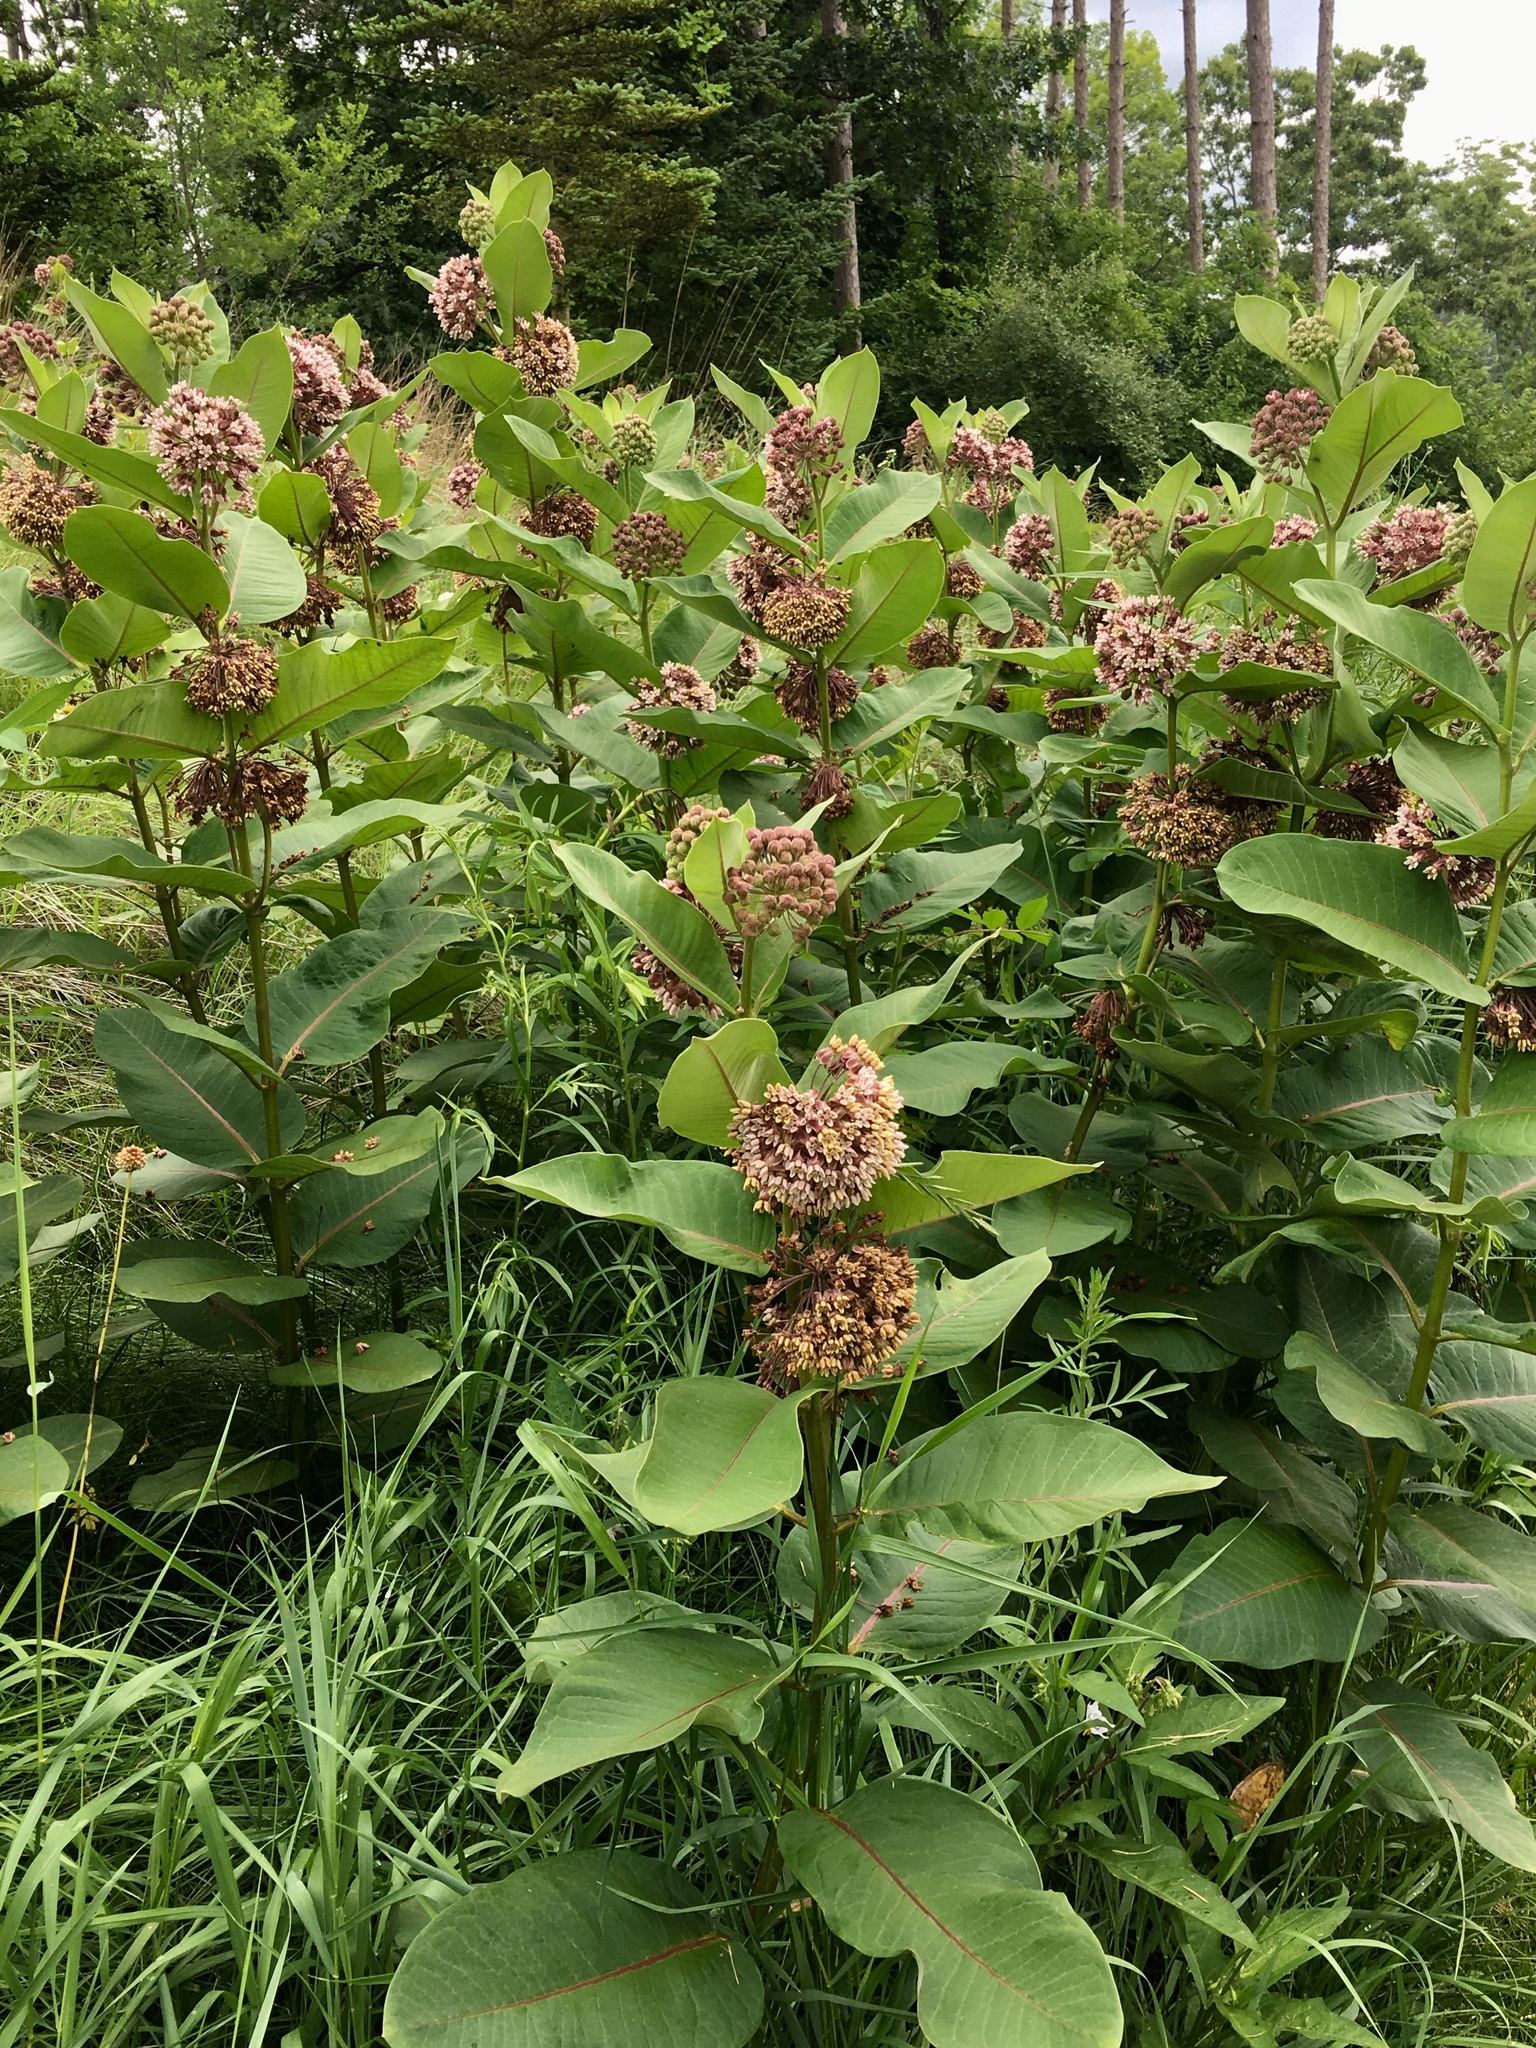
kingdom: Plantae
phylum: Tracheophyta
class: Magnoliopsida
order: Gentianales
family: Apocynaceae
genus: Asclepias
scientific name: Asclepias syriaca
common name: Common milkweed
